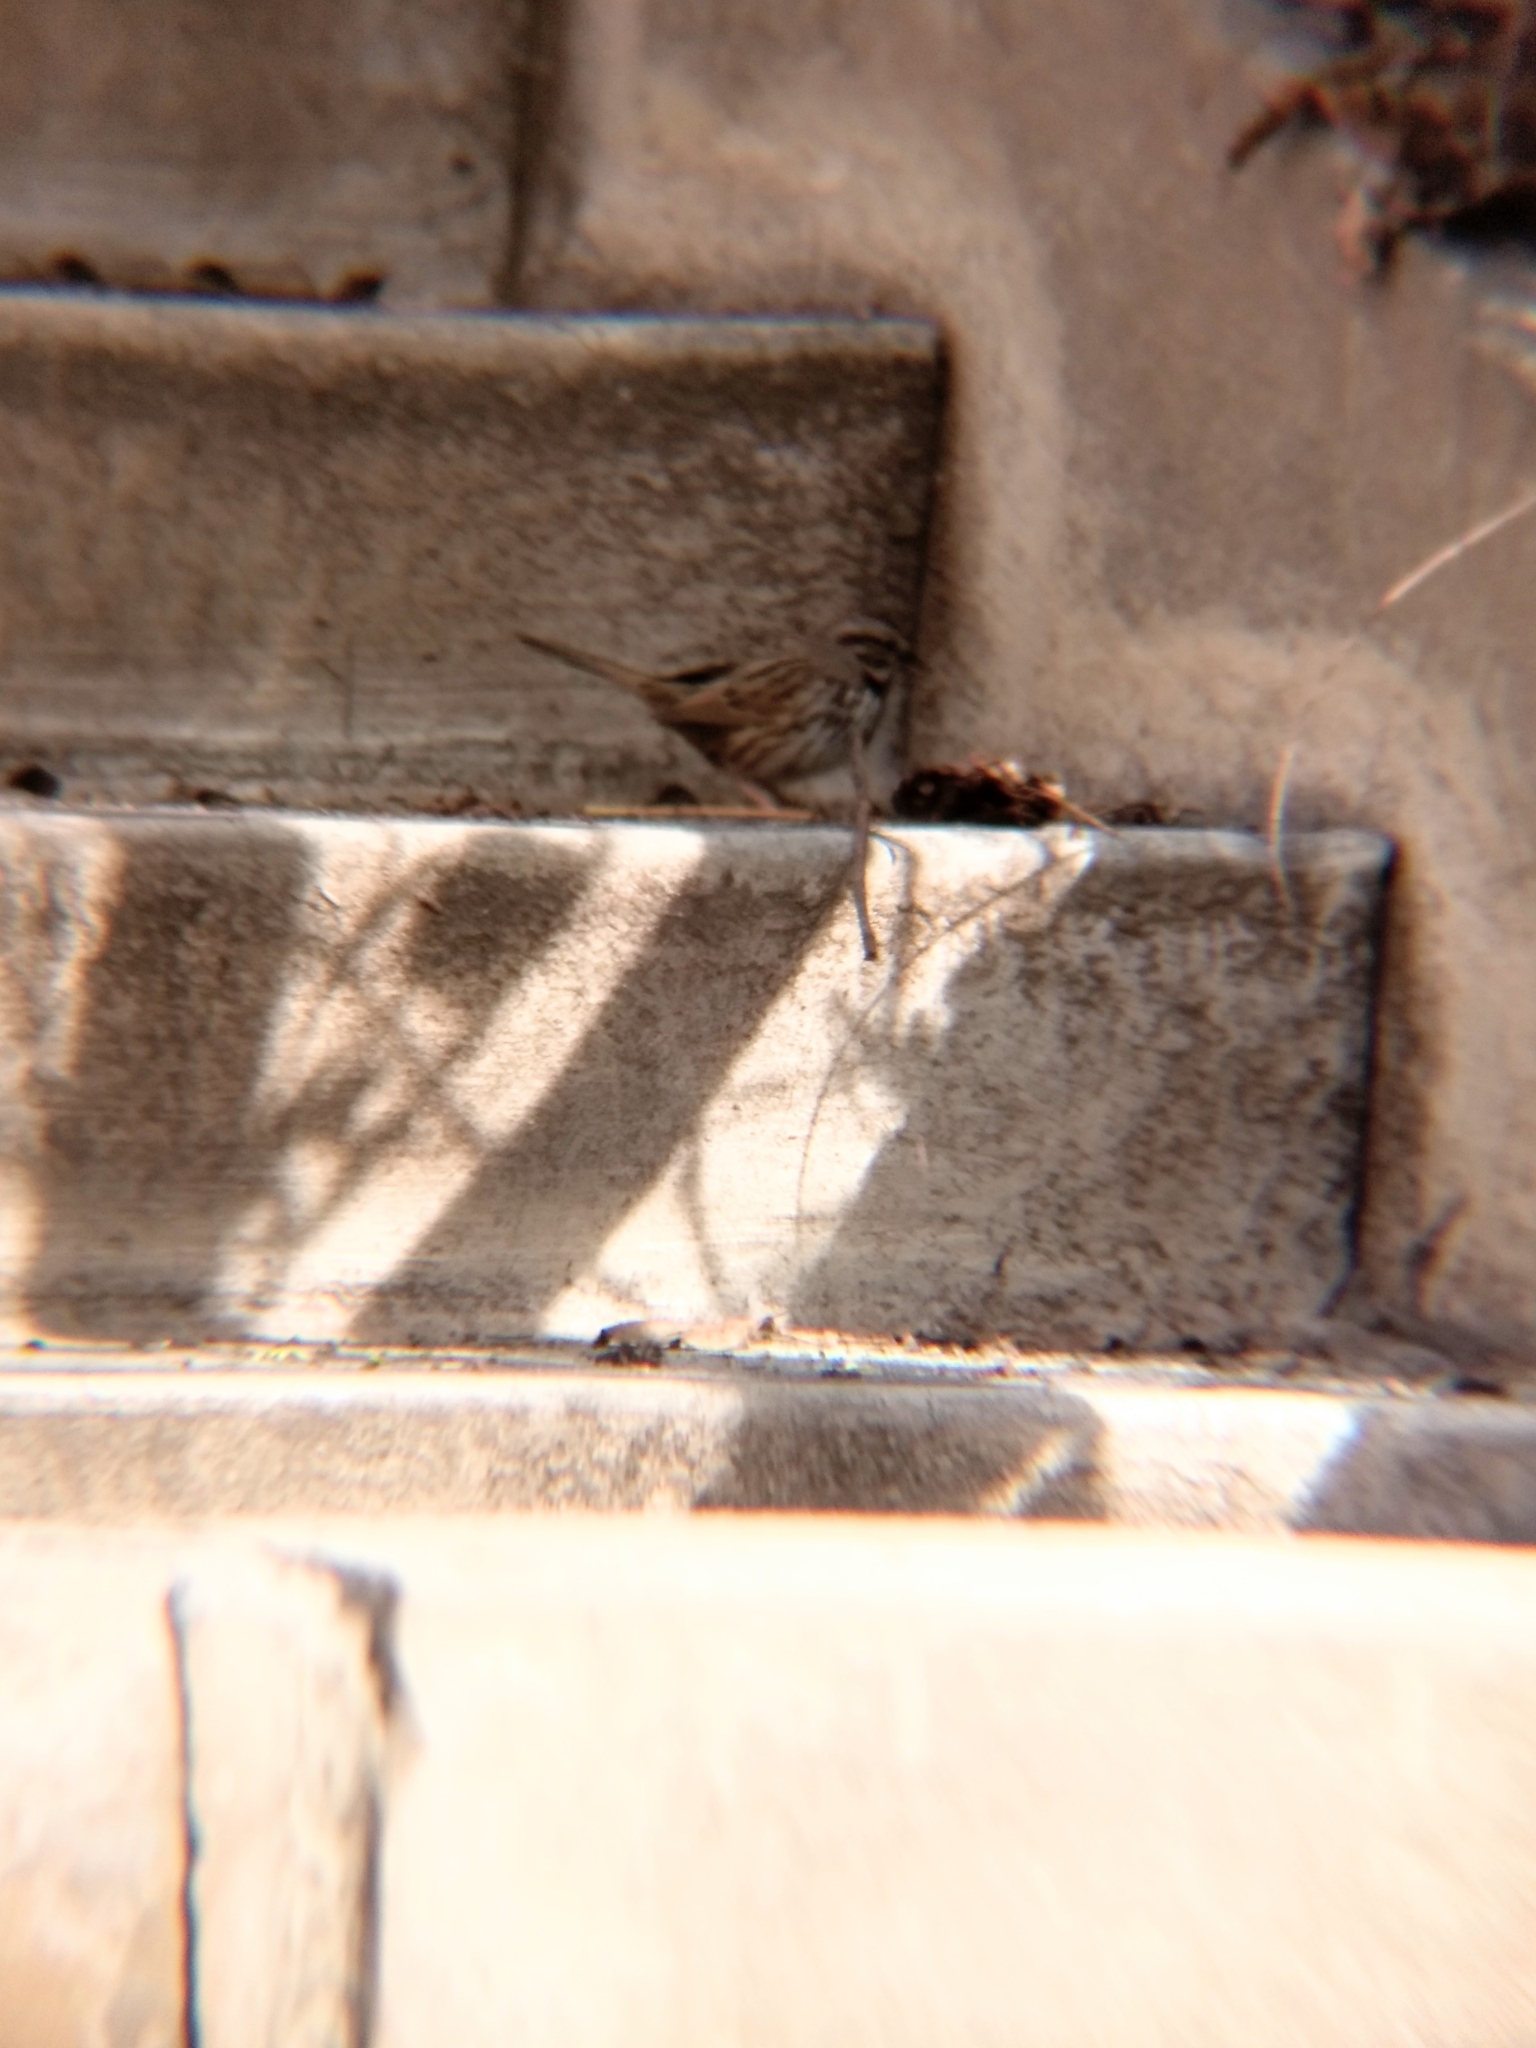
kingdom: Animalia
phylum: Chordata
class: Aves
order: Passeriformes
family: Passerellidae
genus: Melospiza
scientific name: Melospiza melodia
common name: Song sparrow
